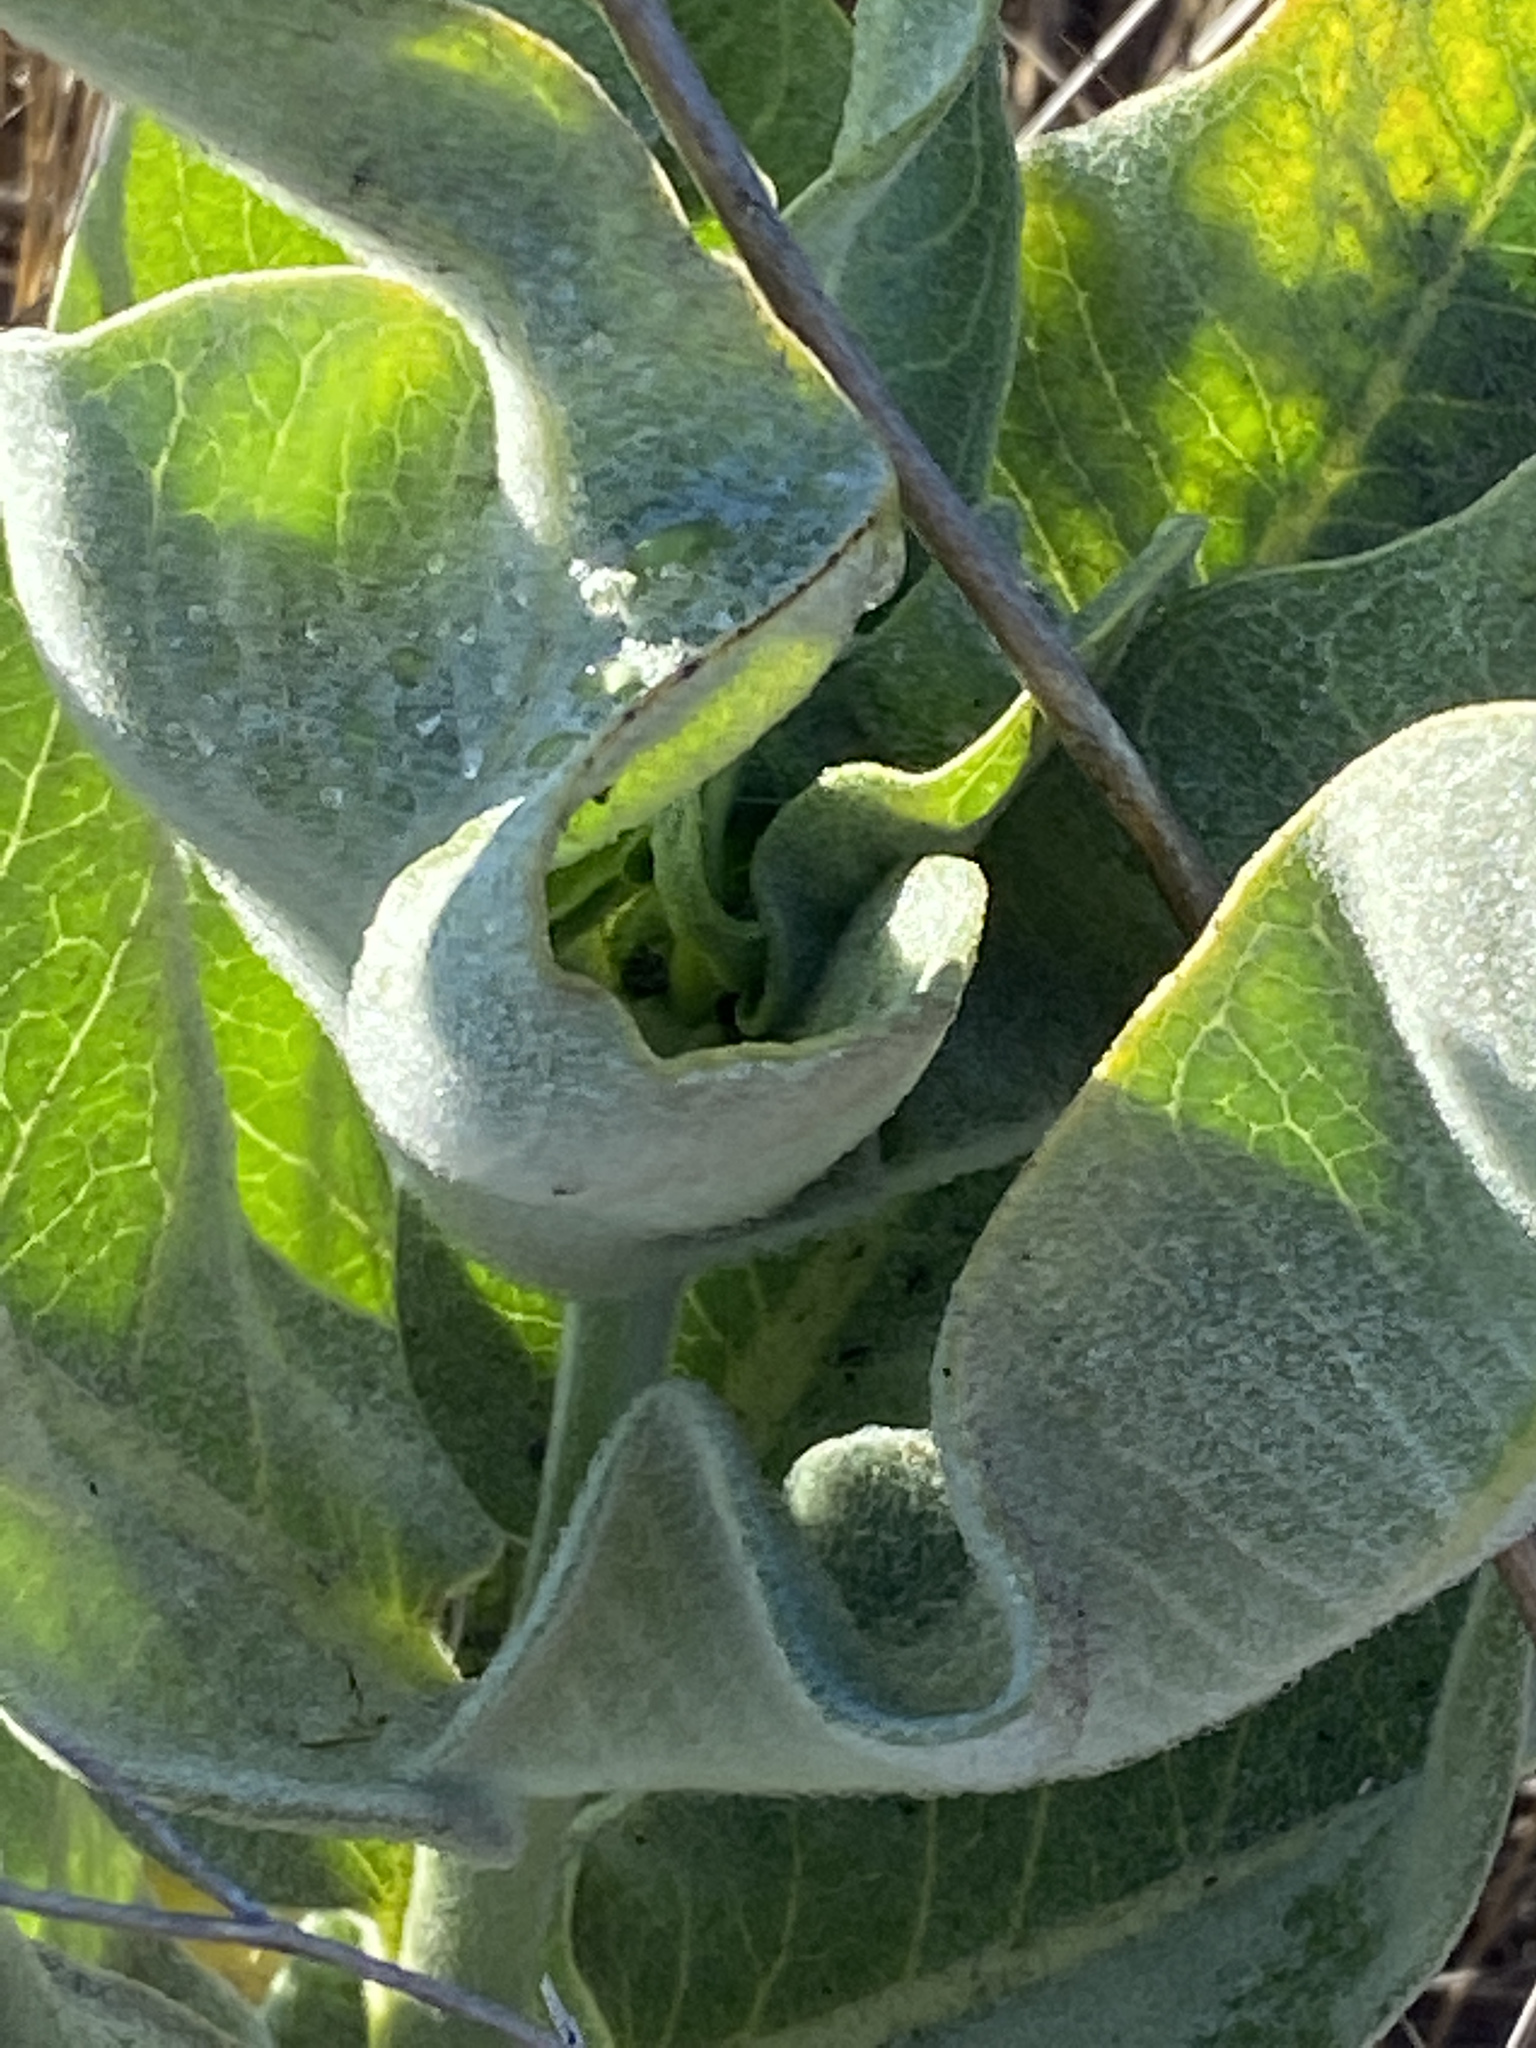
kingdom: Plantae
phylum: Tracheophyta
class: Magnoliopsida
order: Gentianales
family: Apocynaceae
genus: Asclepias
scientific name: Asclepias eriocarpa
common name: Indian milkweed
